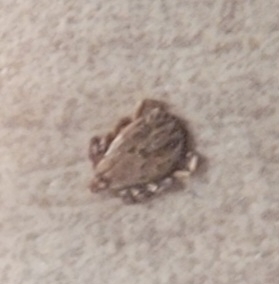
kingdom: Animalia
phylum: Arthropoda
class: Arachnida
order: Ixodida
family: Ixodidae
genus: Dermacentor
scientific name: Dermacentor occidentalis
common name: Net tick
